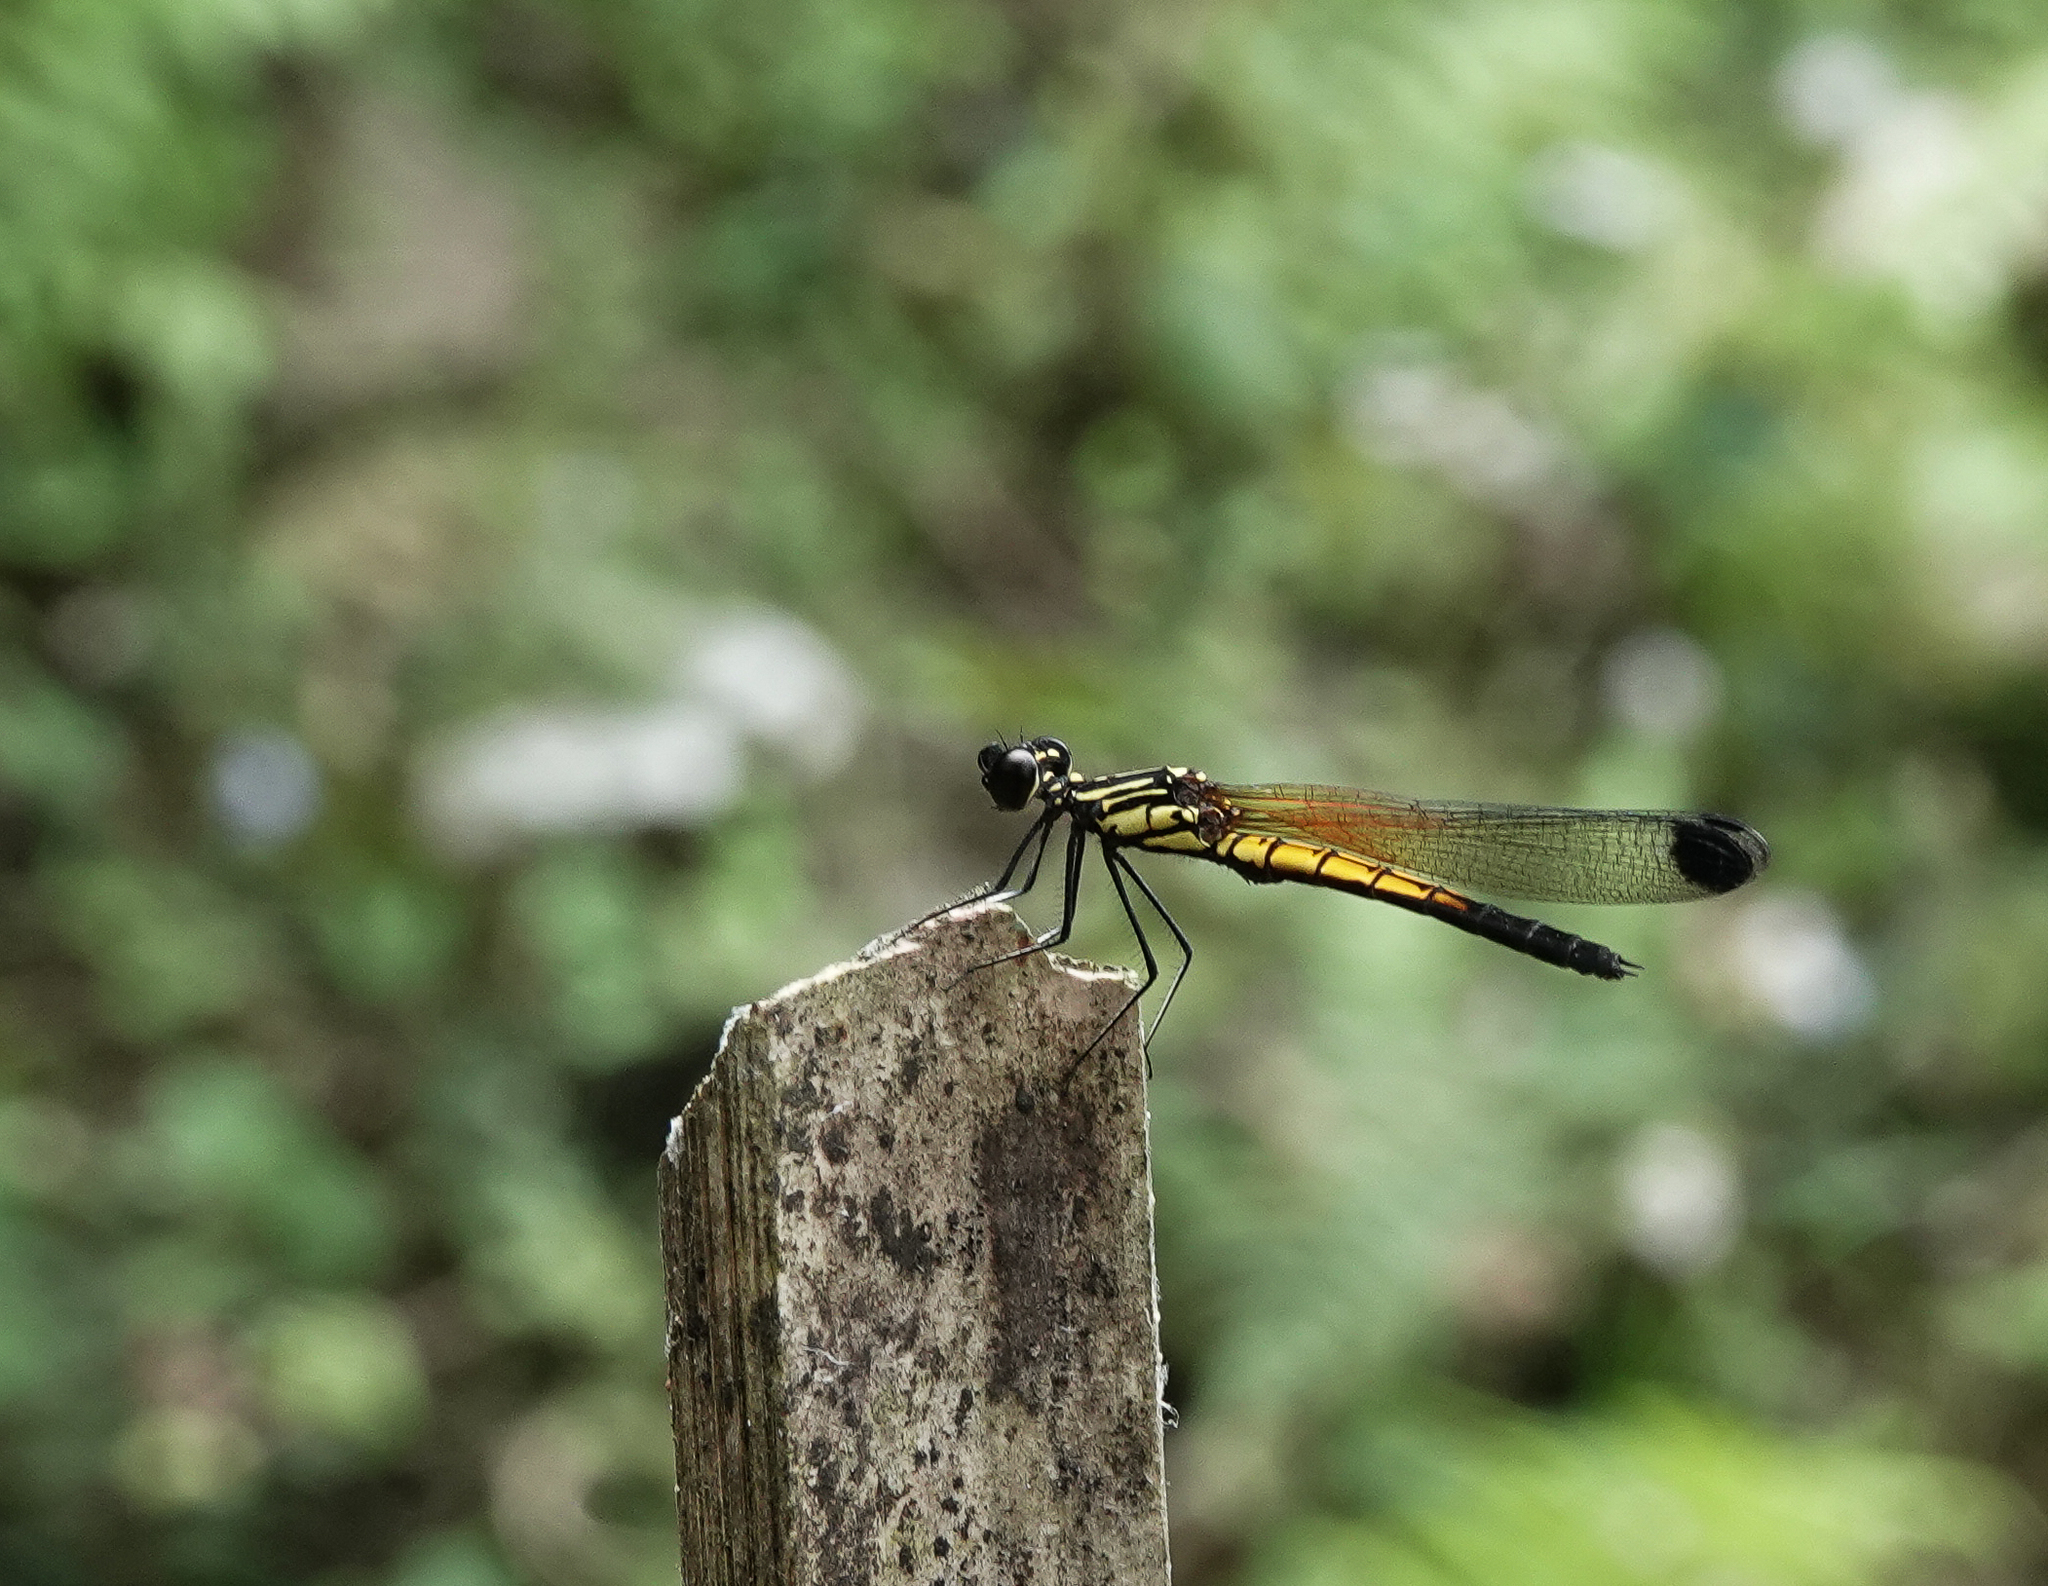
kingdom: Animalia
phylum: Arthropoda
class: Insecta
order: Odonata
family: Chlorocyphidae
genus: Libellago
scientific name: Libellago lineata
